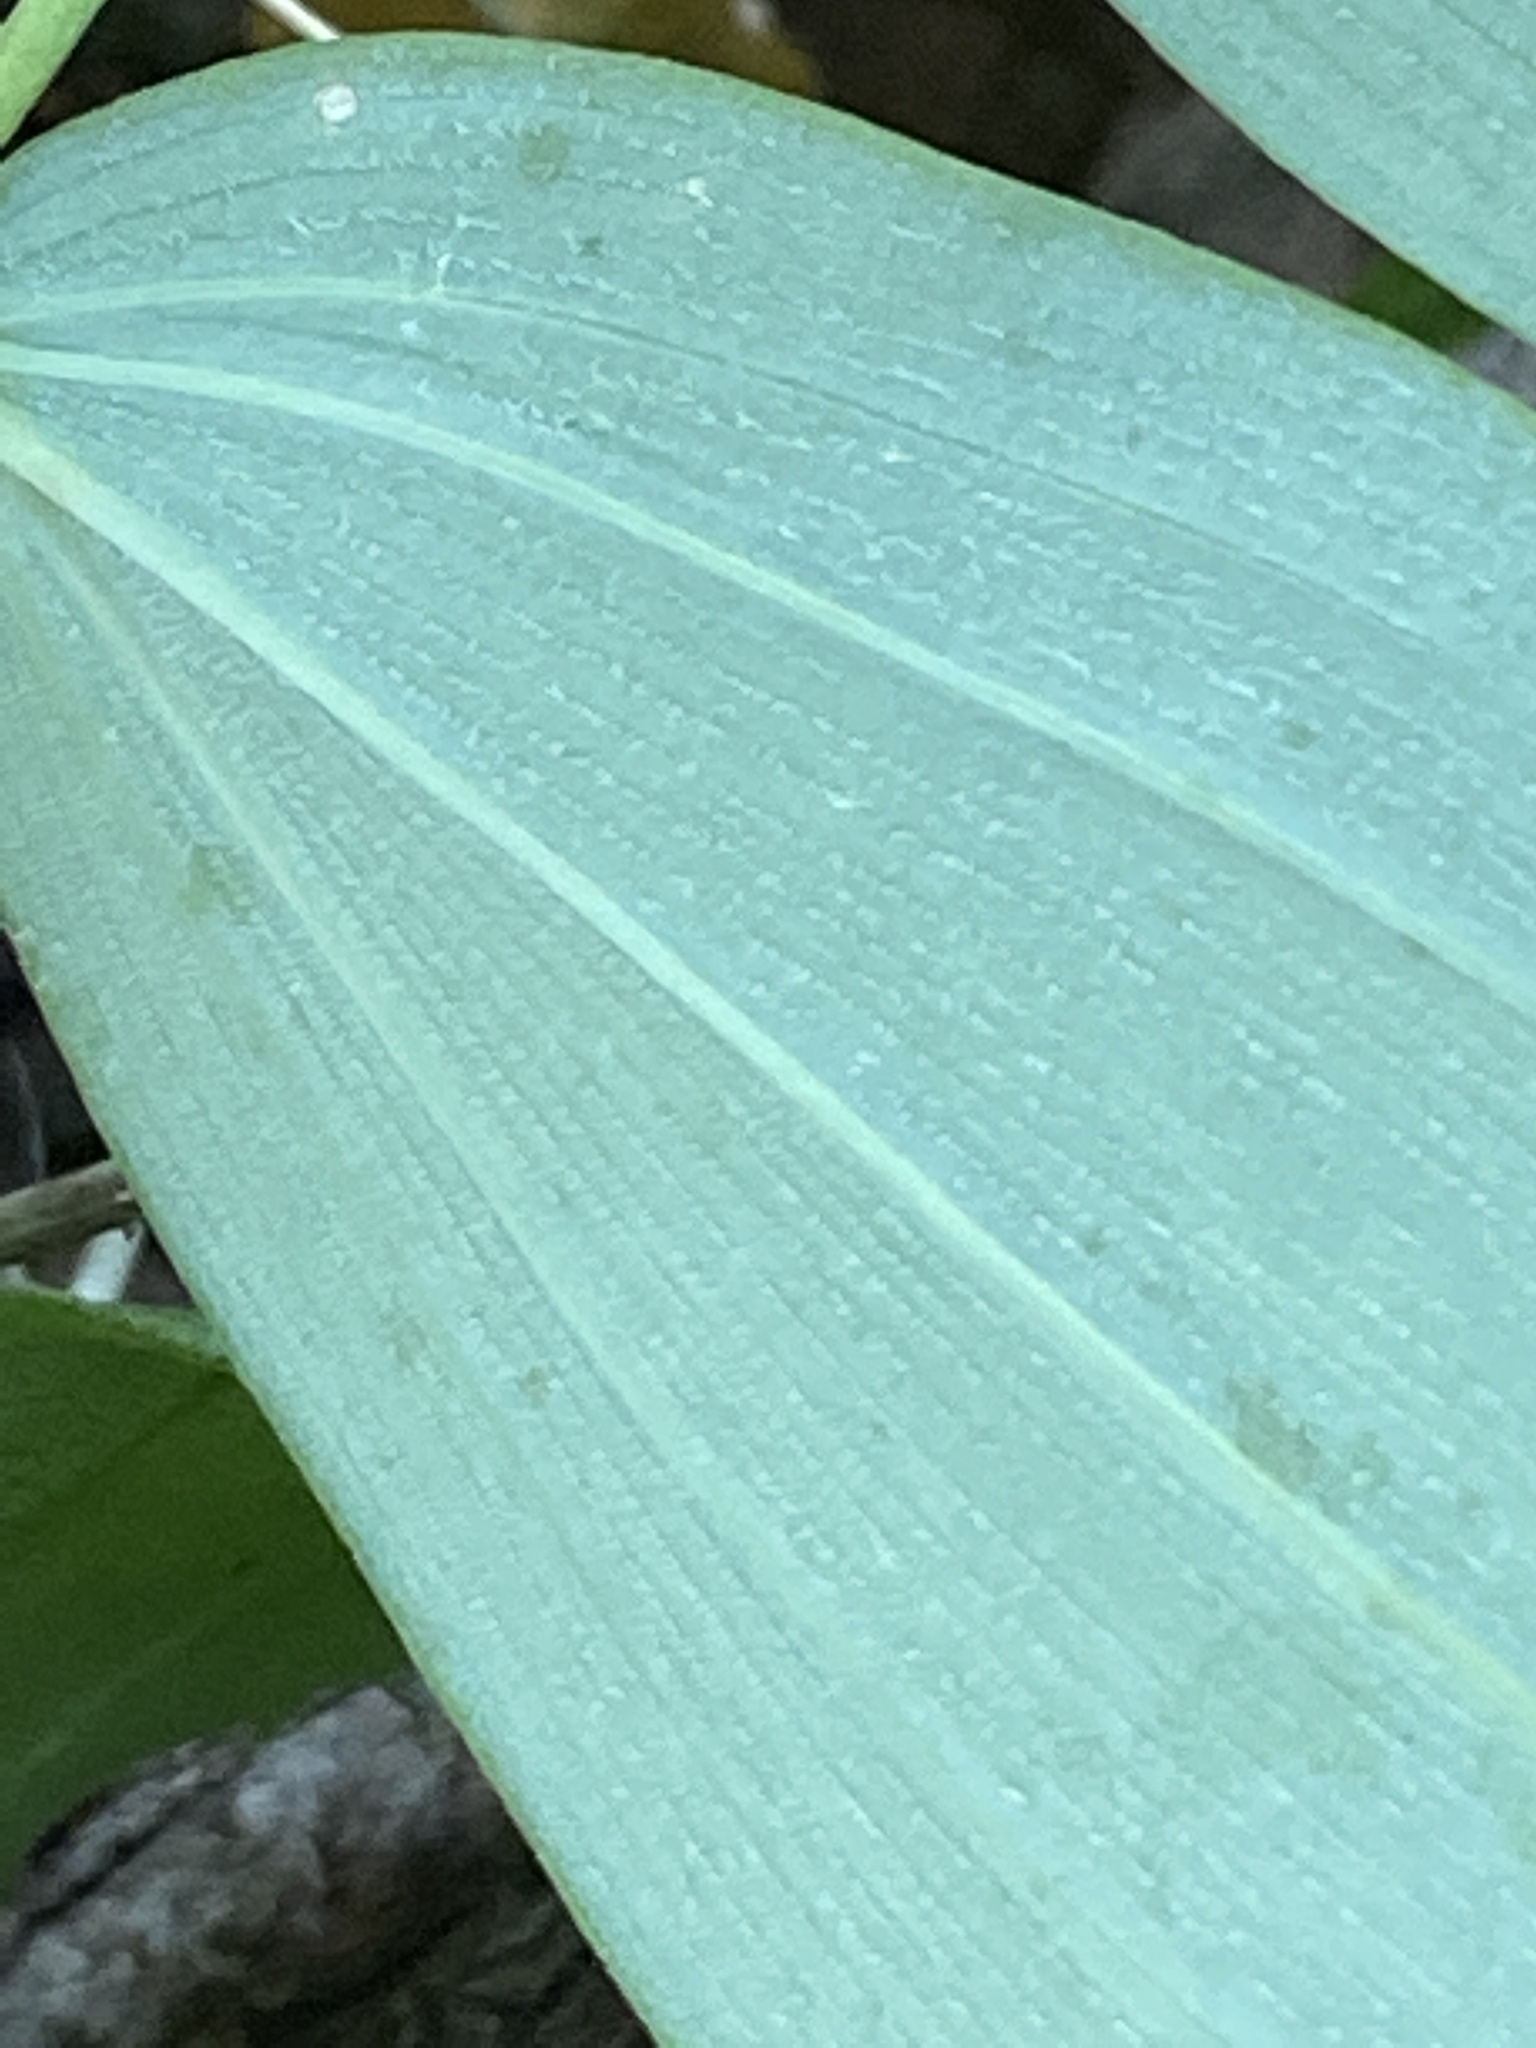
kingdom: Plantae
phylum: Tracheophyta
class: Liliopsida
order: Asparagales
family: Asparagaceae
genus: Polygonatum
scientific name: Polygonatum pubescens
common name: Downy solomon's seal
